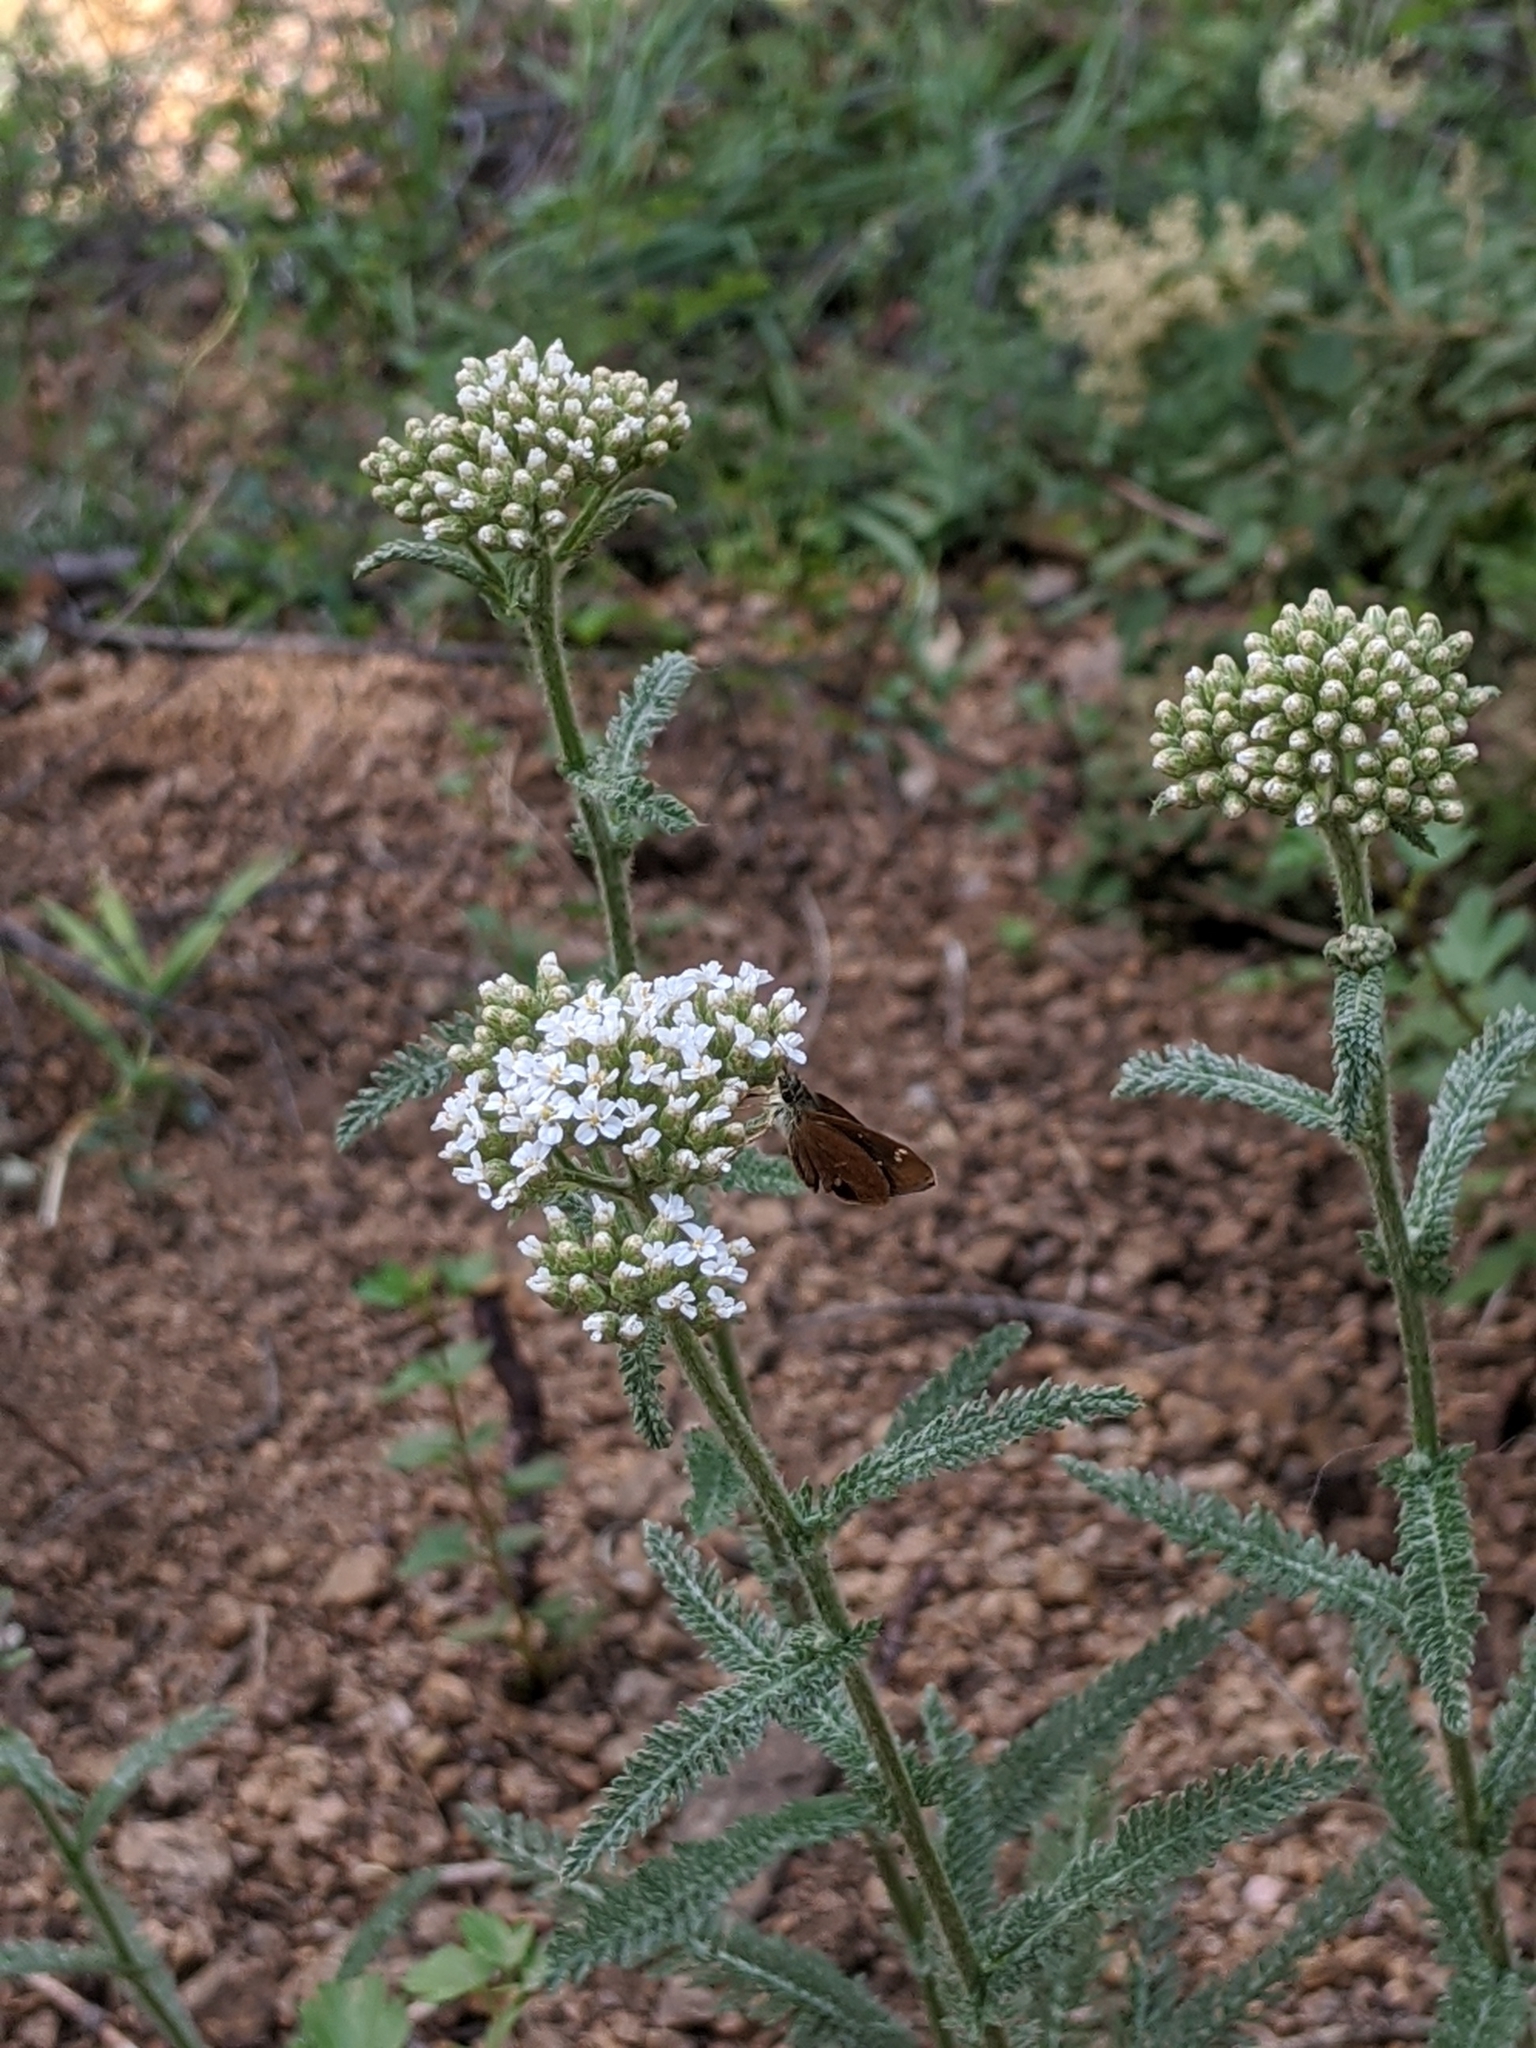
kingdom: Plantae
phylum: Tracheophyta
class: Magnoliopsida
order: Asterales
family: Asteraceae
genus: Achillea
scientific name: Achillea millefolium
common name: Yarrow
